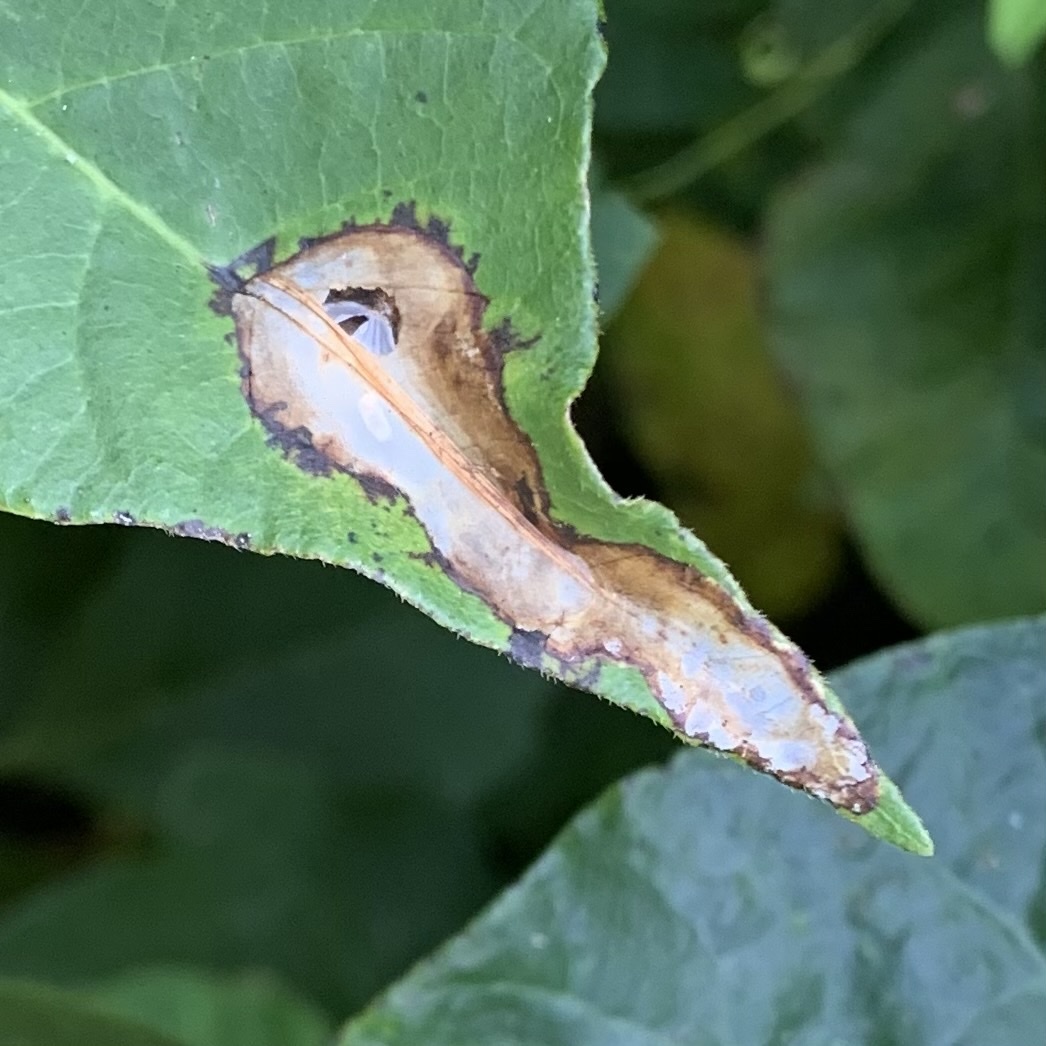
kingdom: Animalia
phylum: Arthropoda
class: Insecta
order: Lepidoptera
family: Gracillariidae
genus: Cameraria
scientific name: Cameraria guttifinitella
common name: Poison ivy leaf-miner moth
